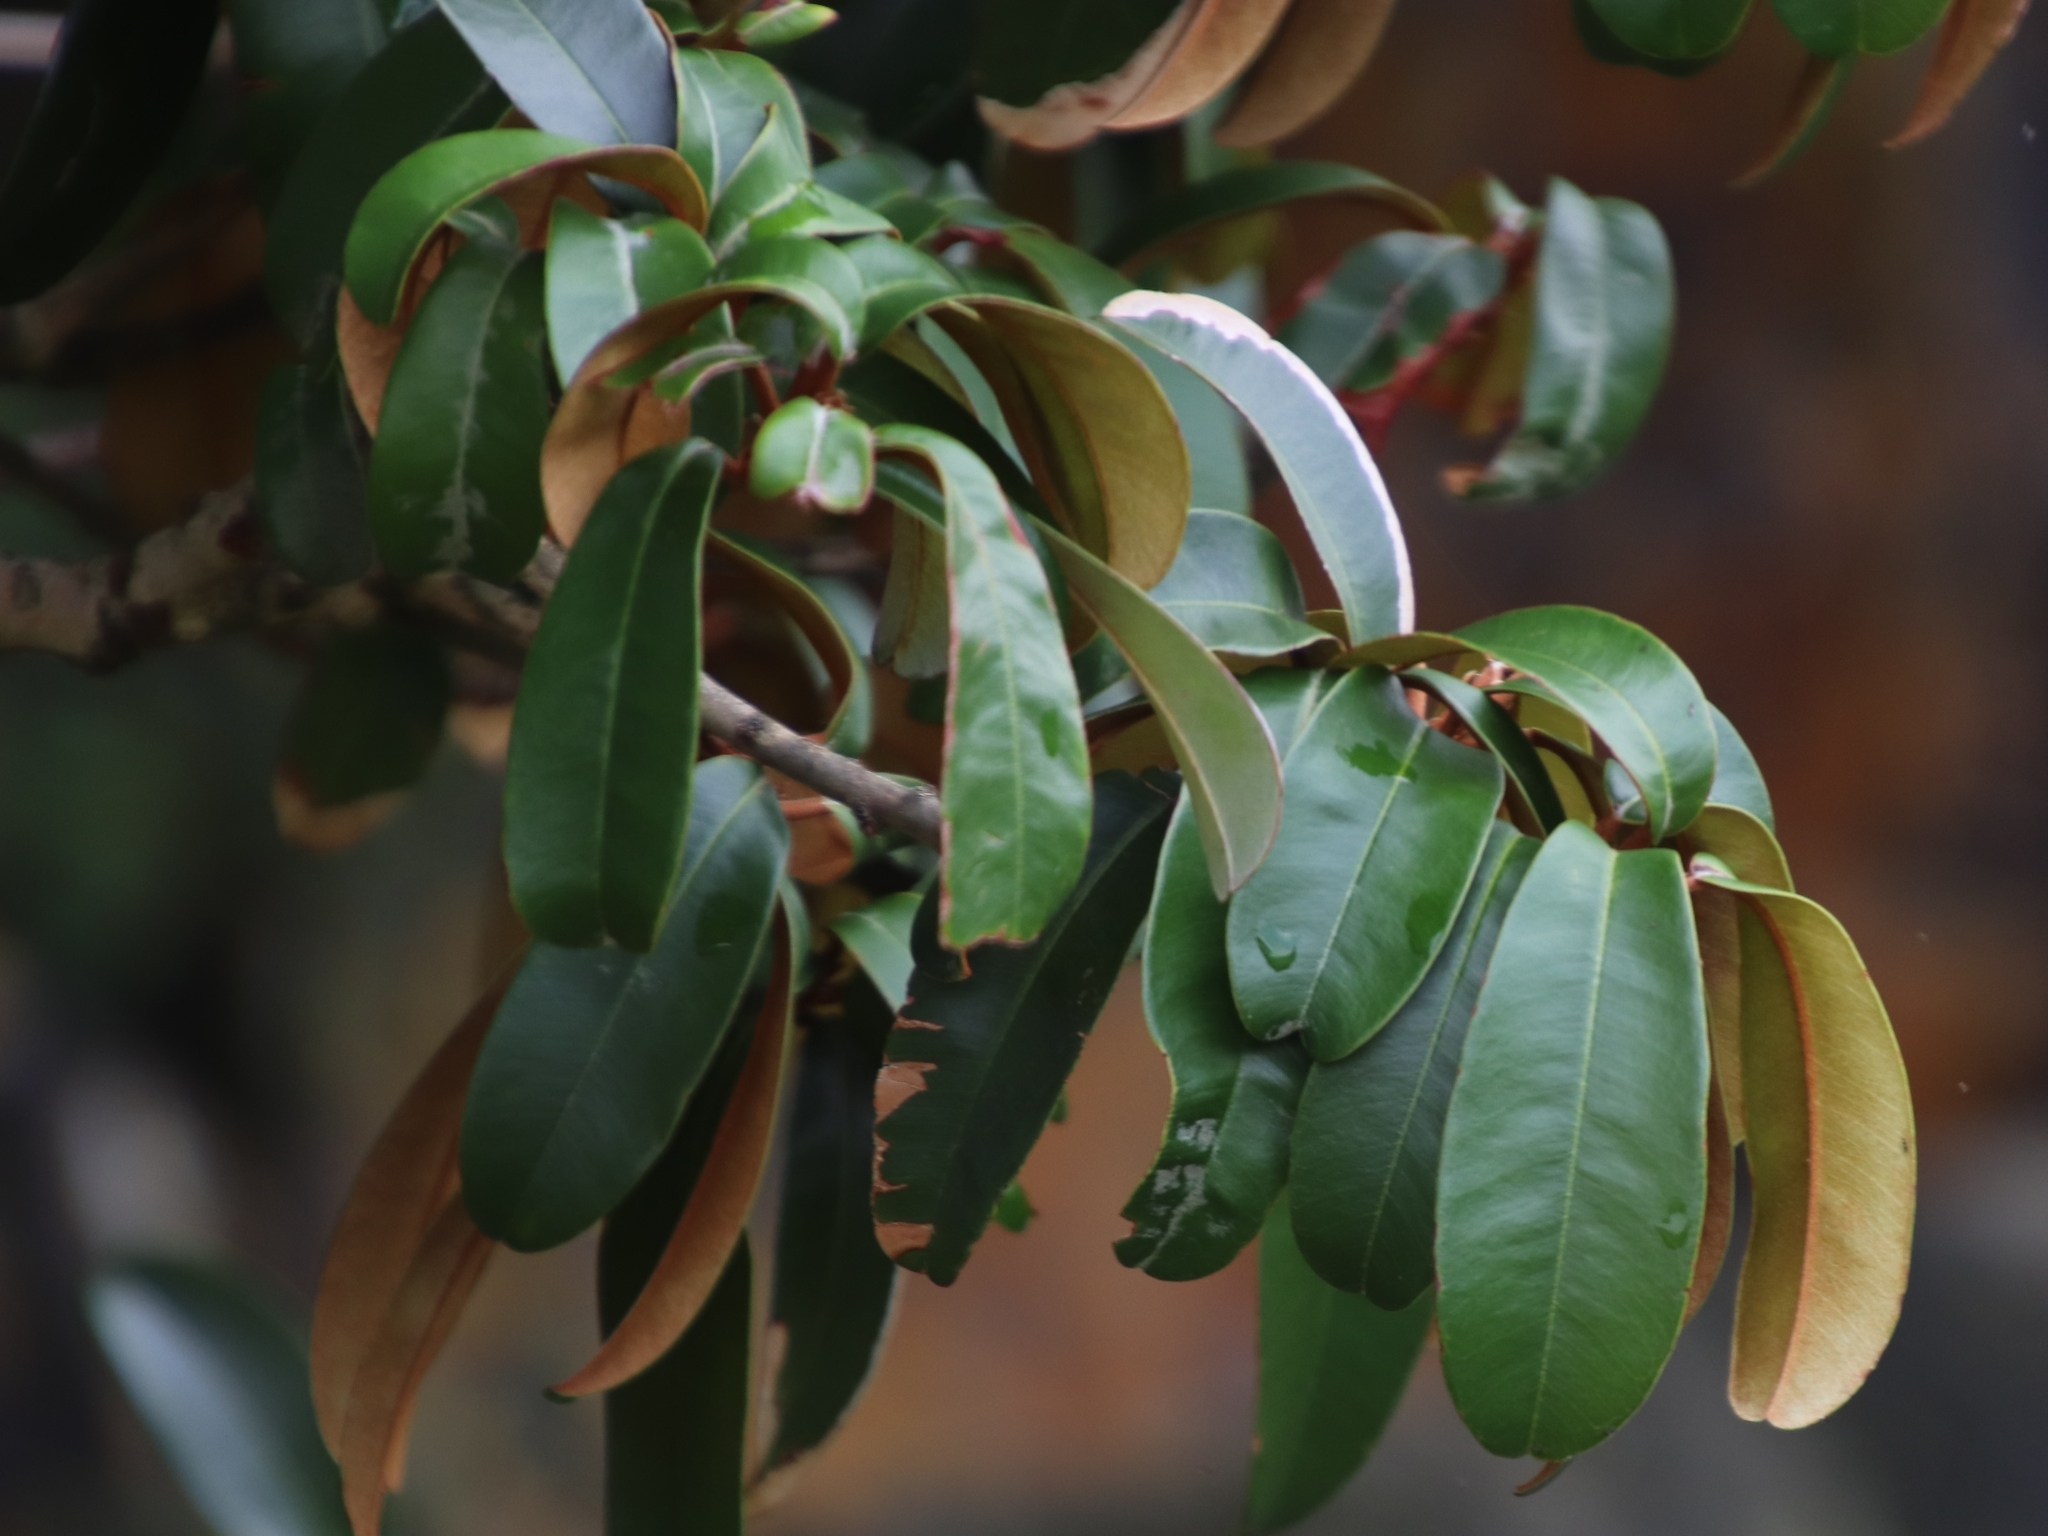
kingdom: Plantae
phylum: Tracheophyta
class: Magnoliopsida
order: Ericales
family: Sapotaceae
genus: Englerophytum
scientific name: Englerophytum magalismontanum
